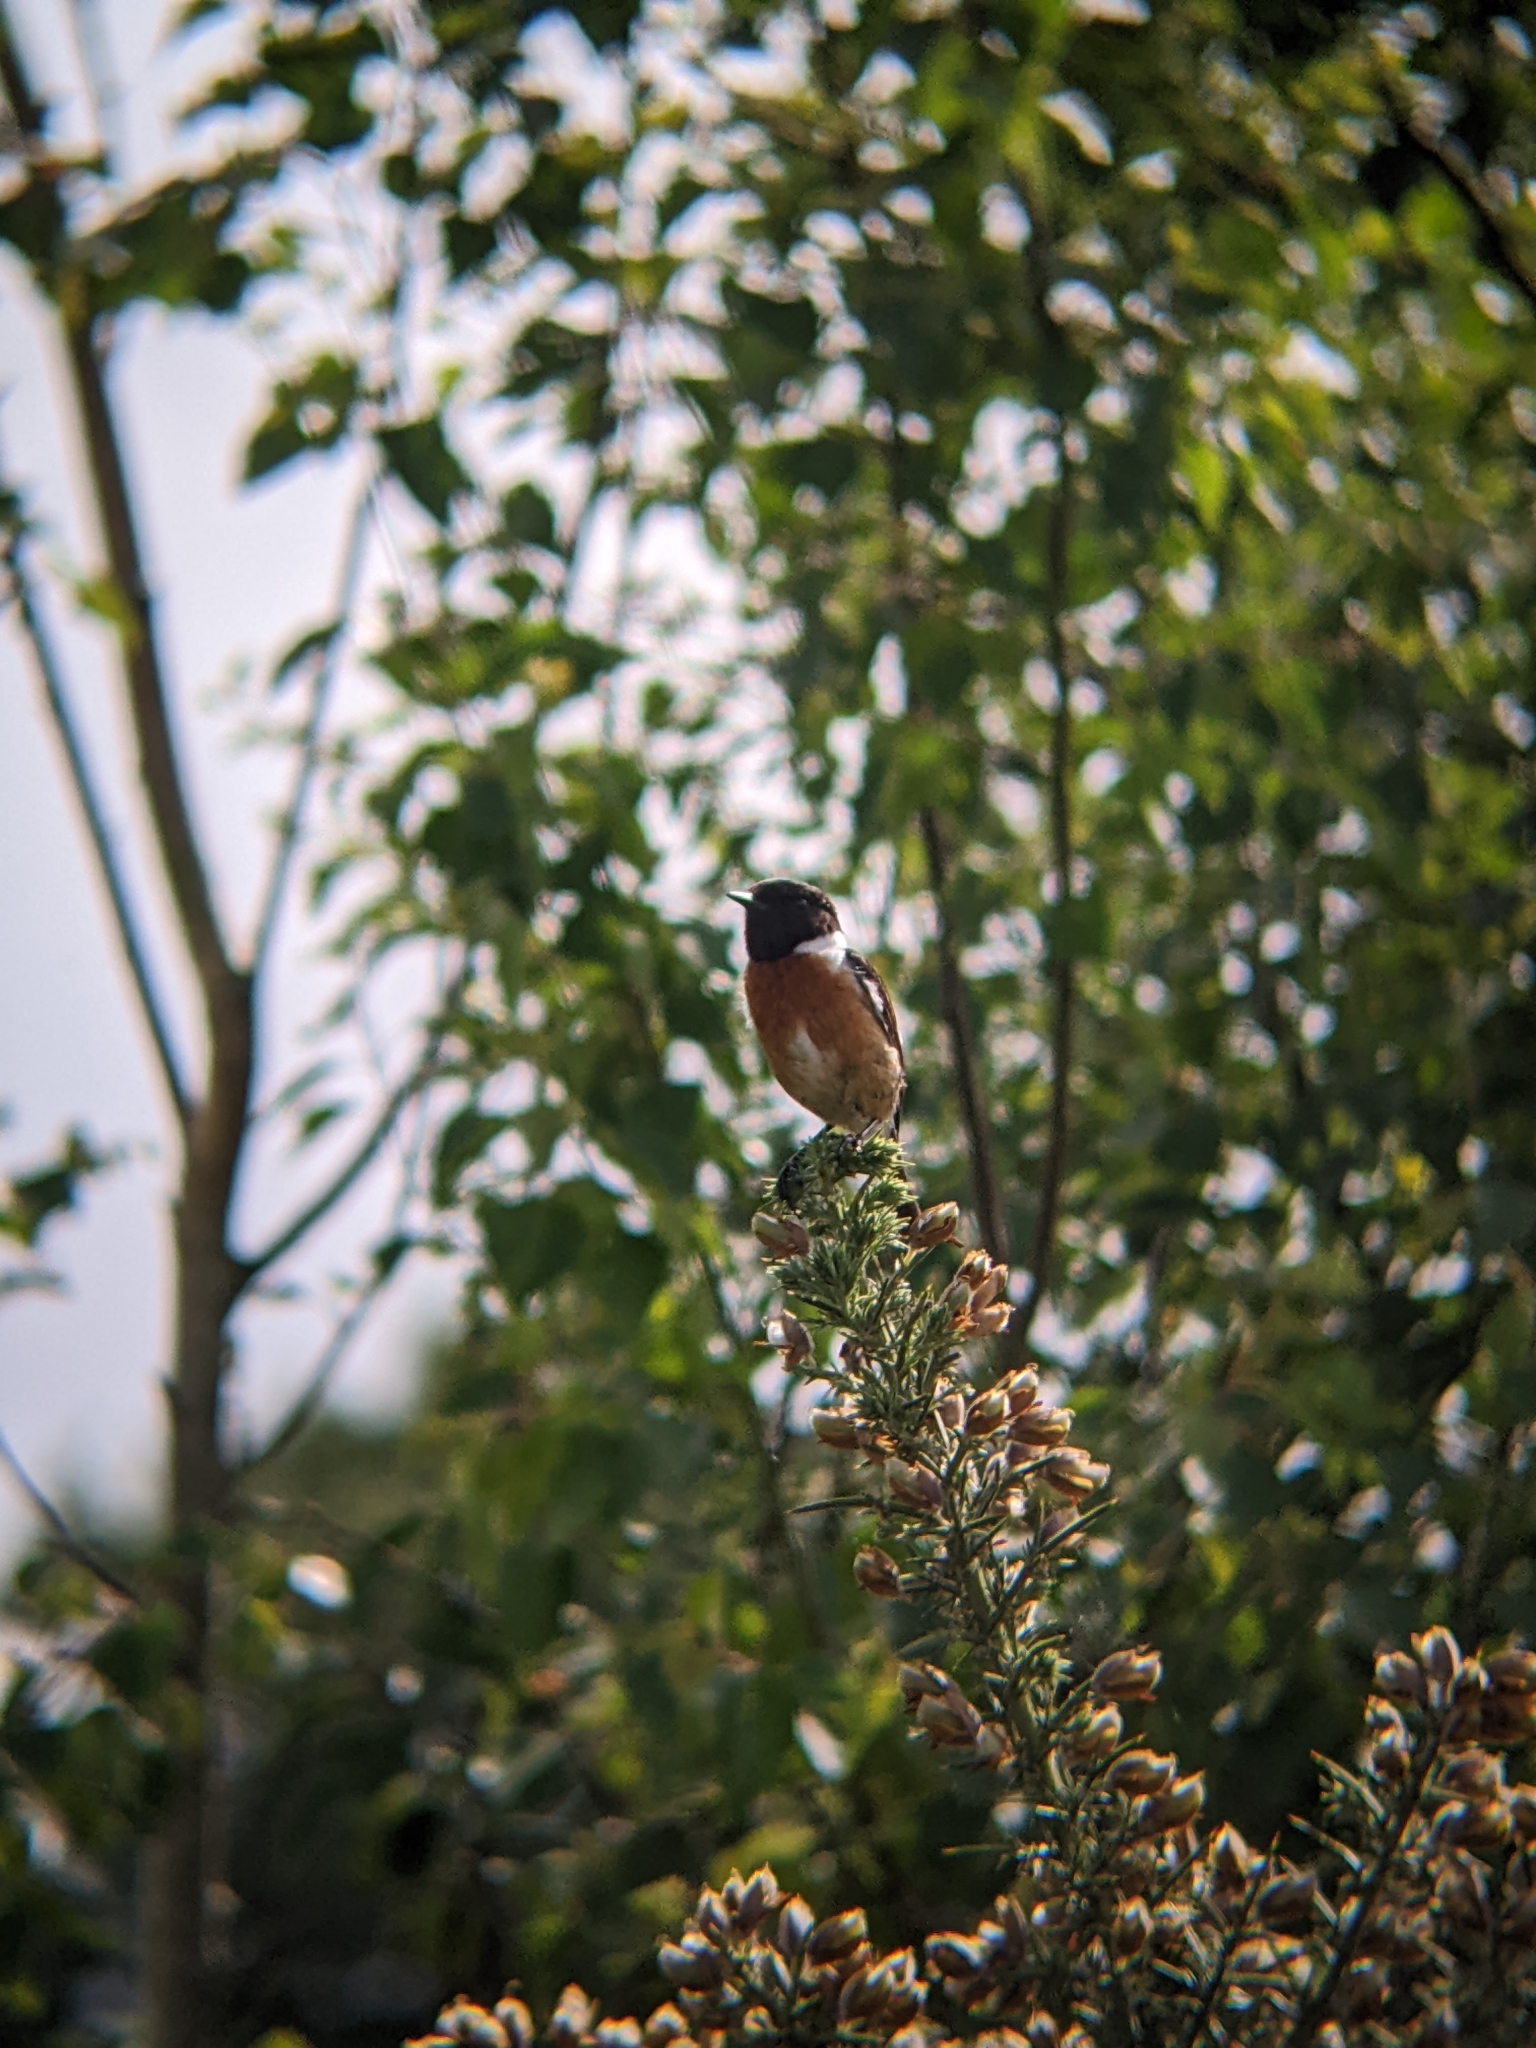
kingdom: Animalia
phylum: Chordata
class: Aves
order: Passeriformes
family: Muscicapidae
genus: Saxicola
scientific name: Saxicola rubicola
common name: European stonechat
